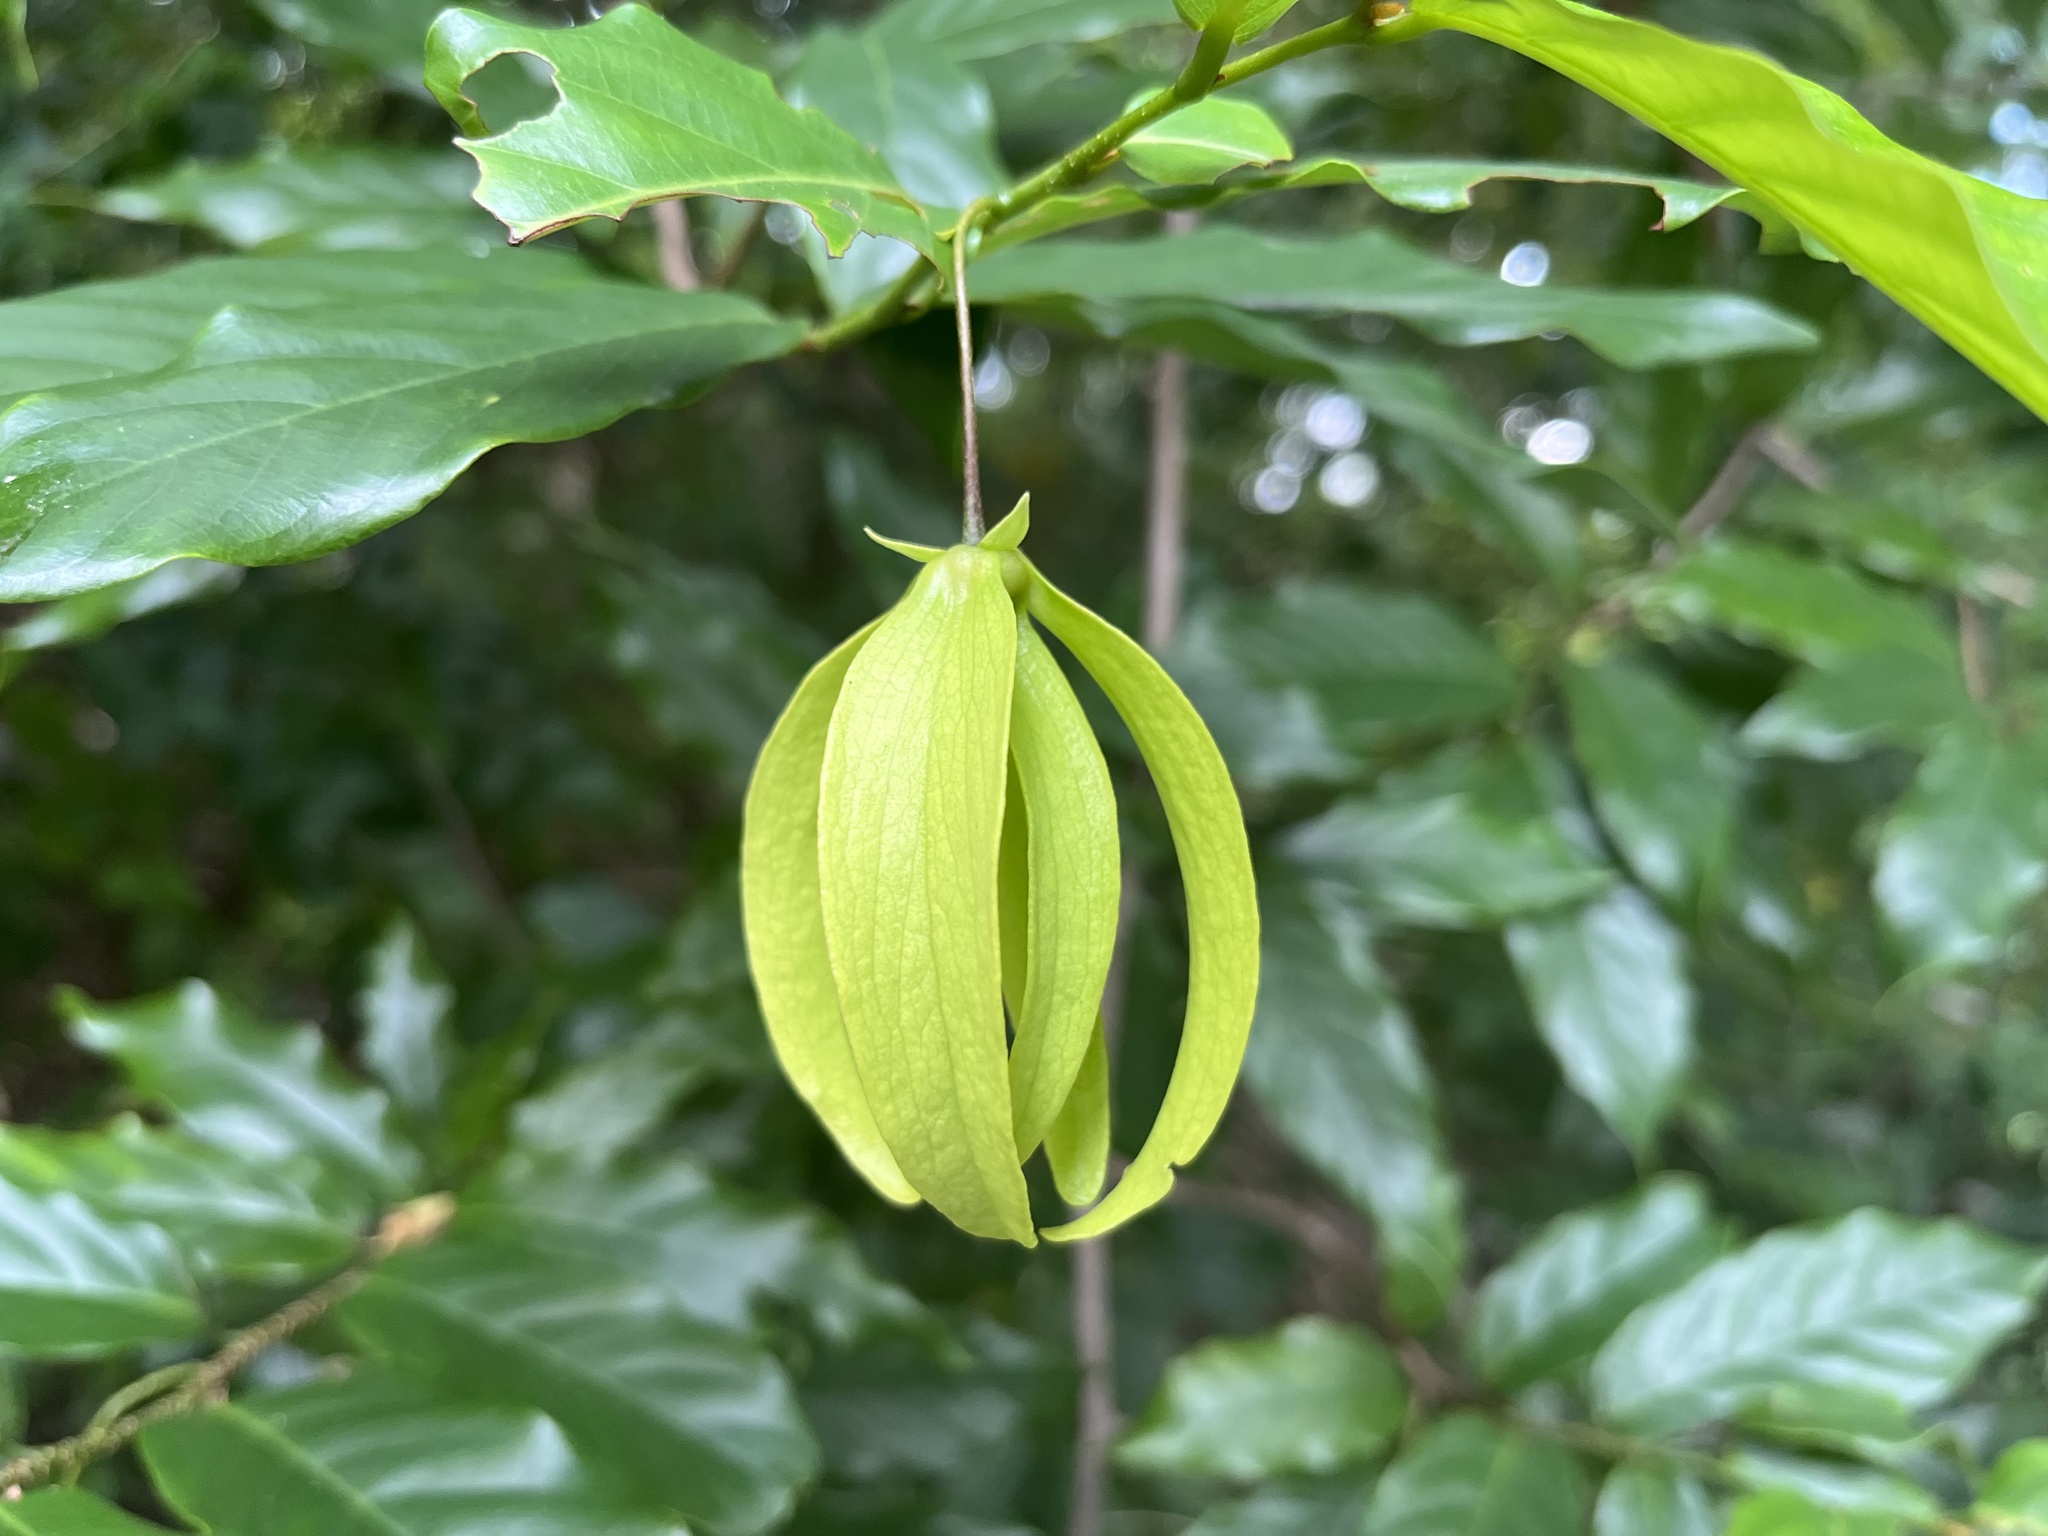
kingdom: Plantae
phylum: Tracheophyta
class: Magnoliopsida
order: Magnoliales
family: Annonaceae
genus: Desmos
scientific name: Desmos chinensis
